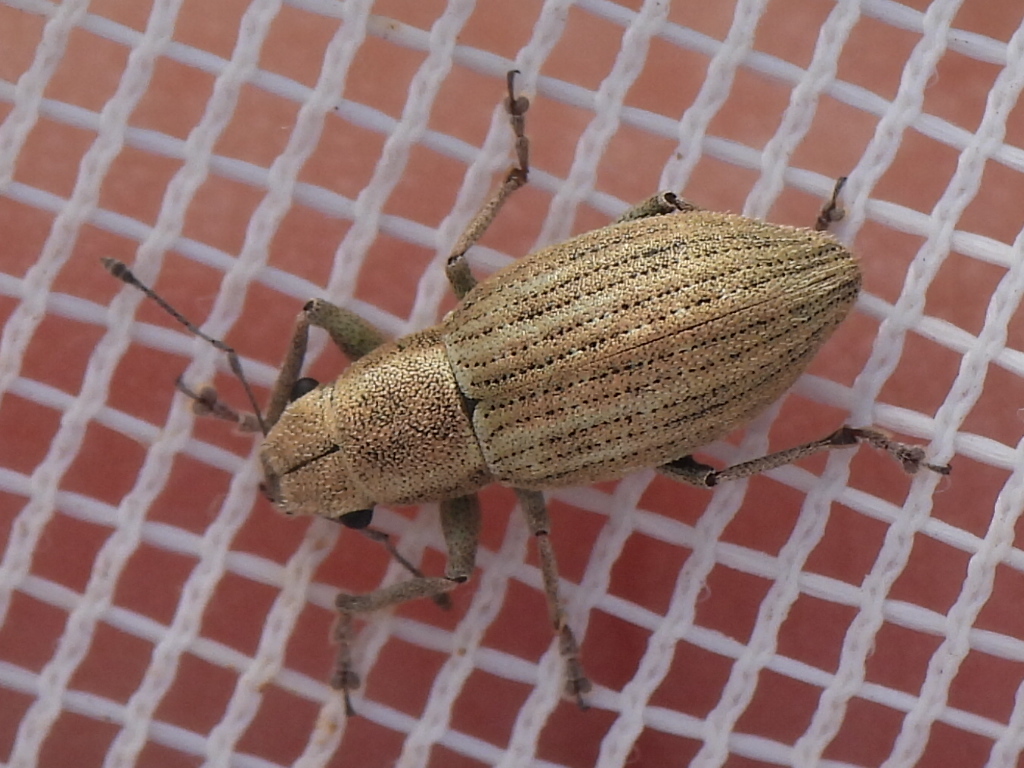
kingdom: Animalia
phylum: Arthropoda
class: Insecta
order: Coleoptera
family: Curculionidae
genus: Aramigus
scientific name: Aramigus tessellatus
